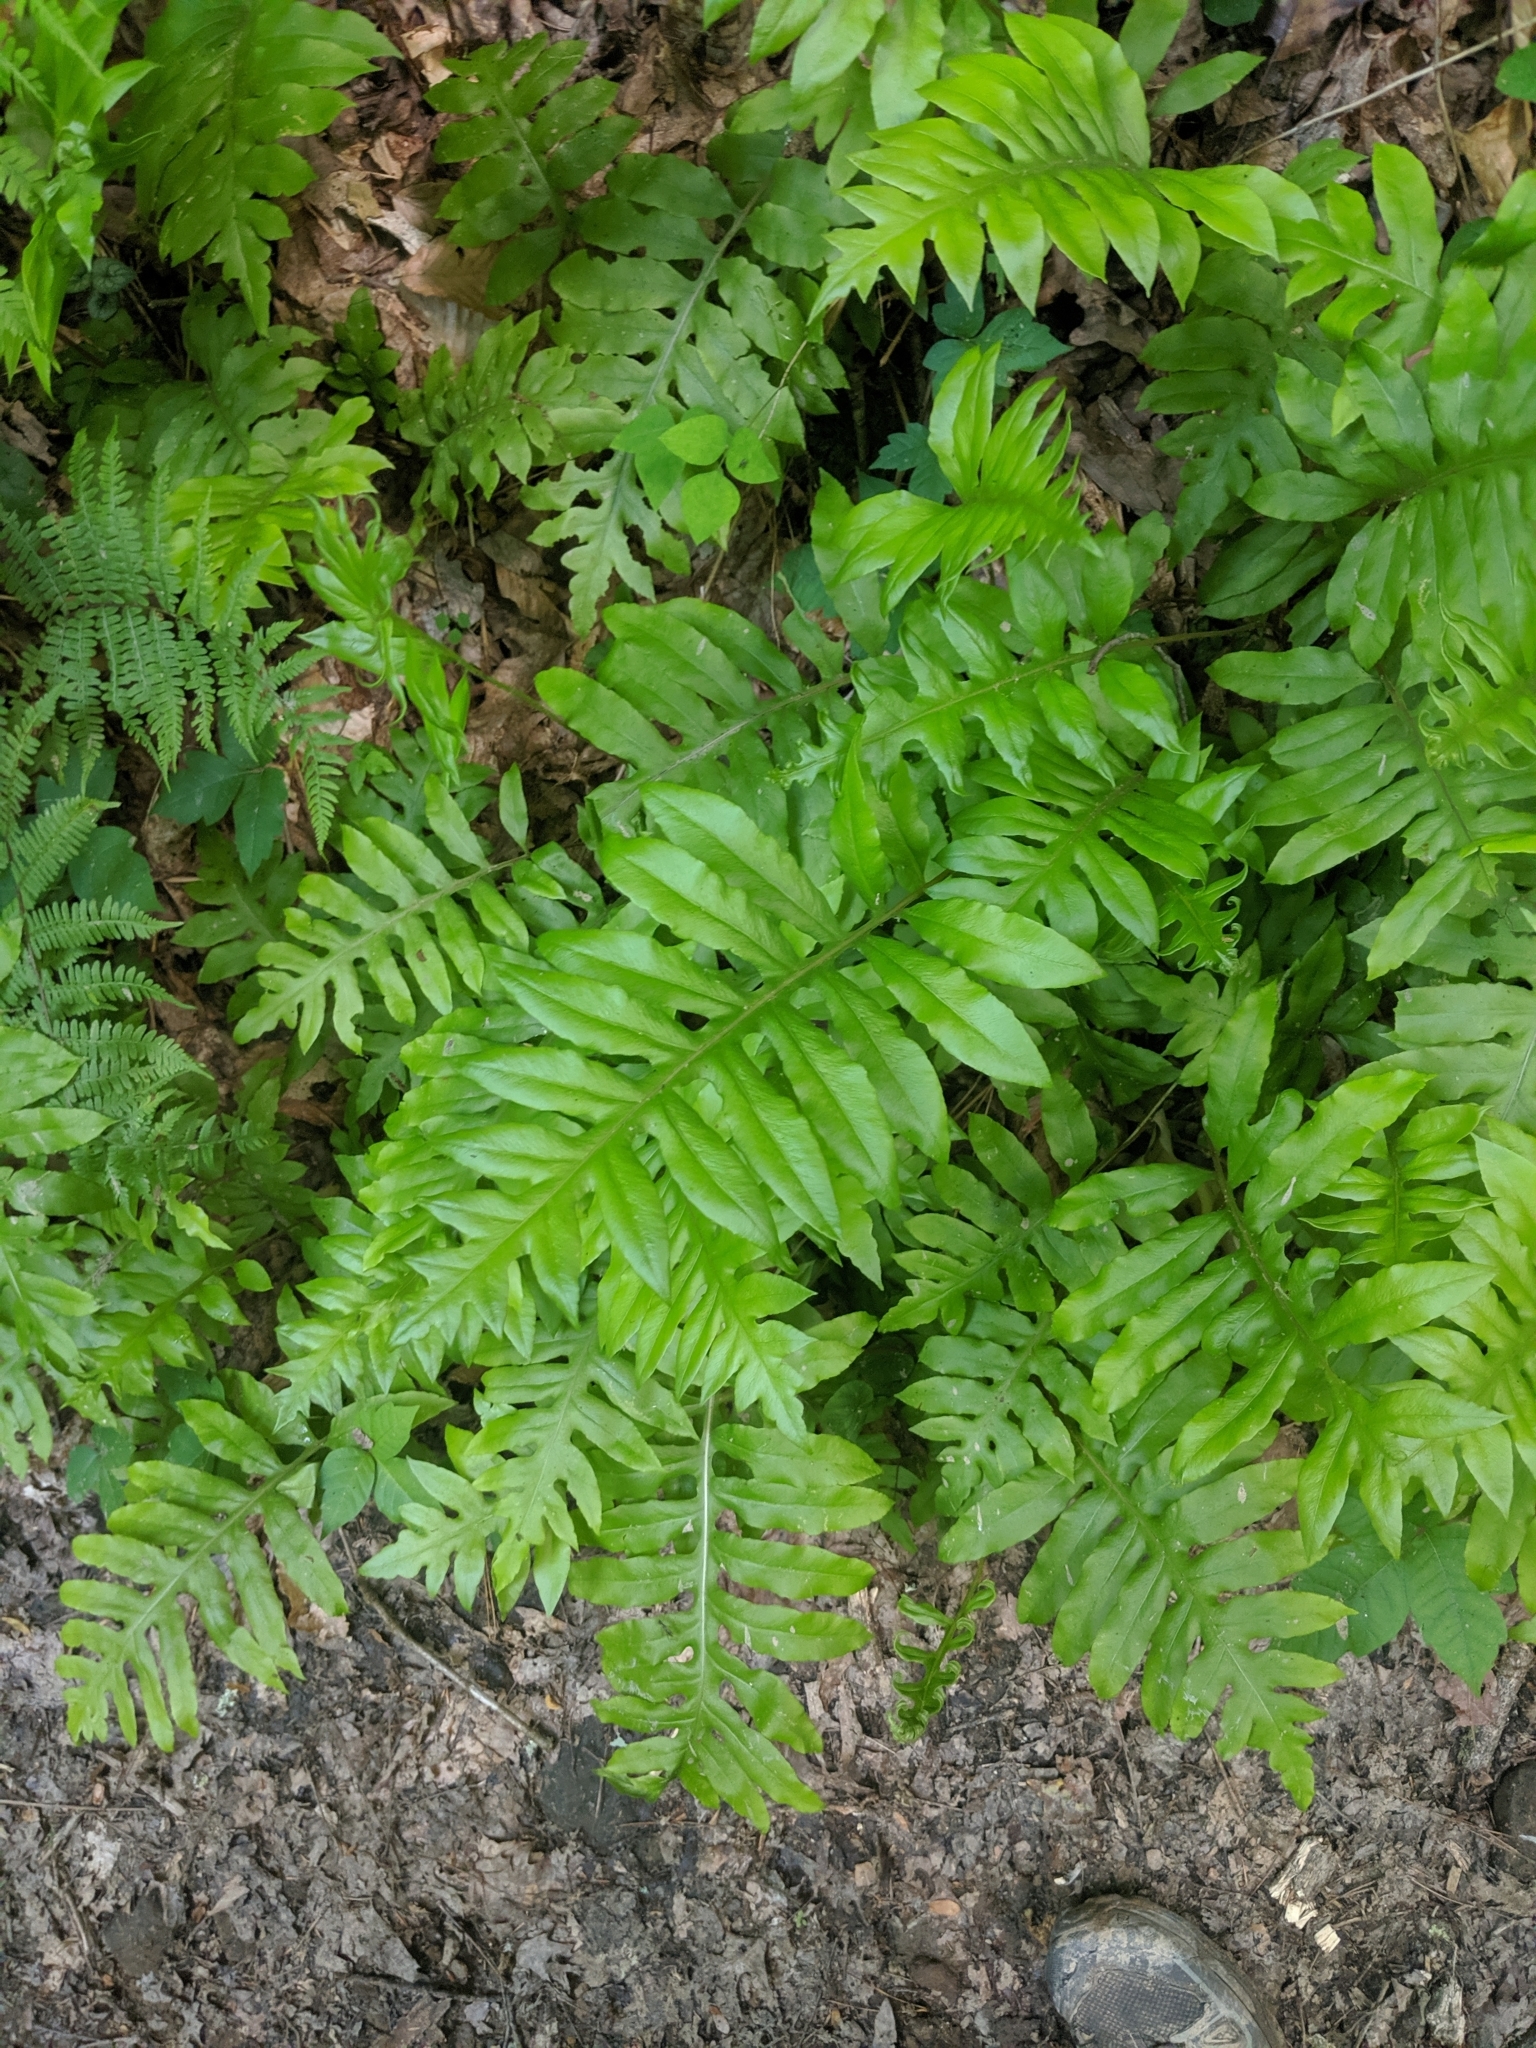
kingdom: Plantae
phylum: Tracheophyta
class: Polypodiopsida
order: Polypodiales
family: Blechnaceae
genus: Lorinseria
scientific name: Lorinseria areolata
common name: Dwarf chain fern
